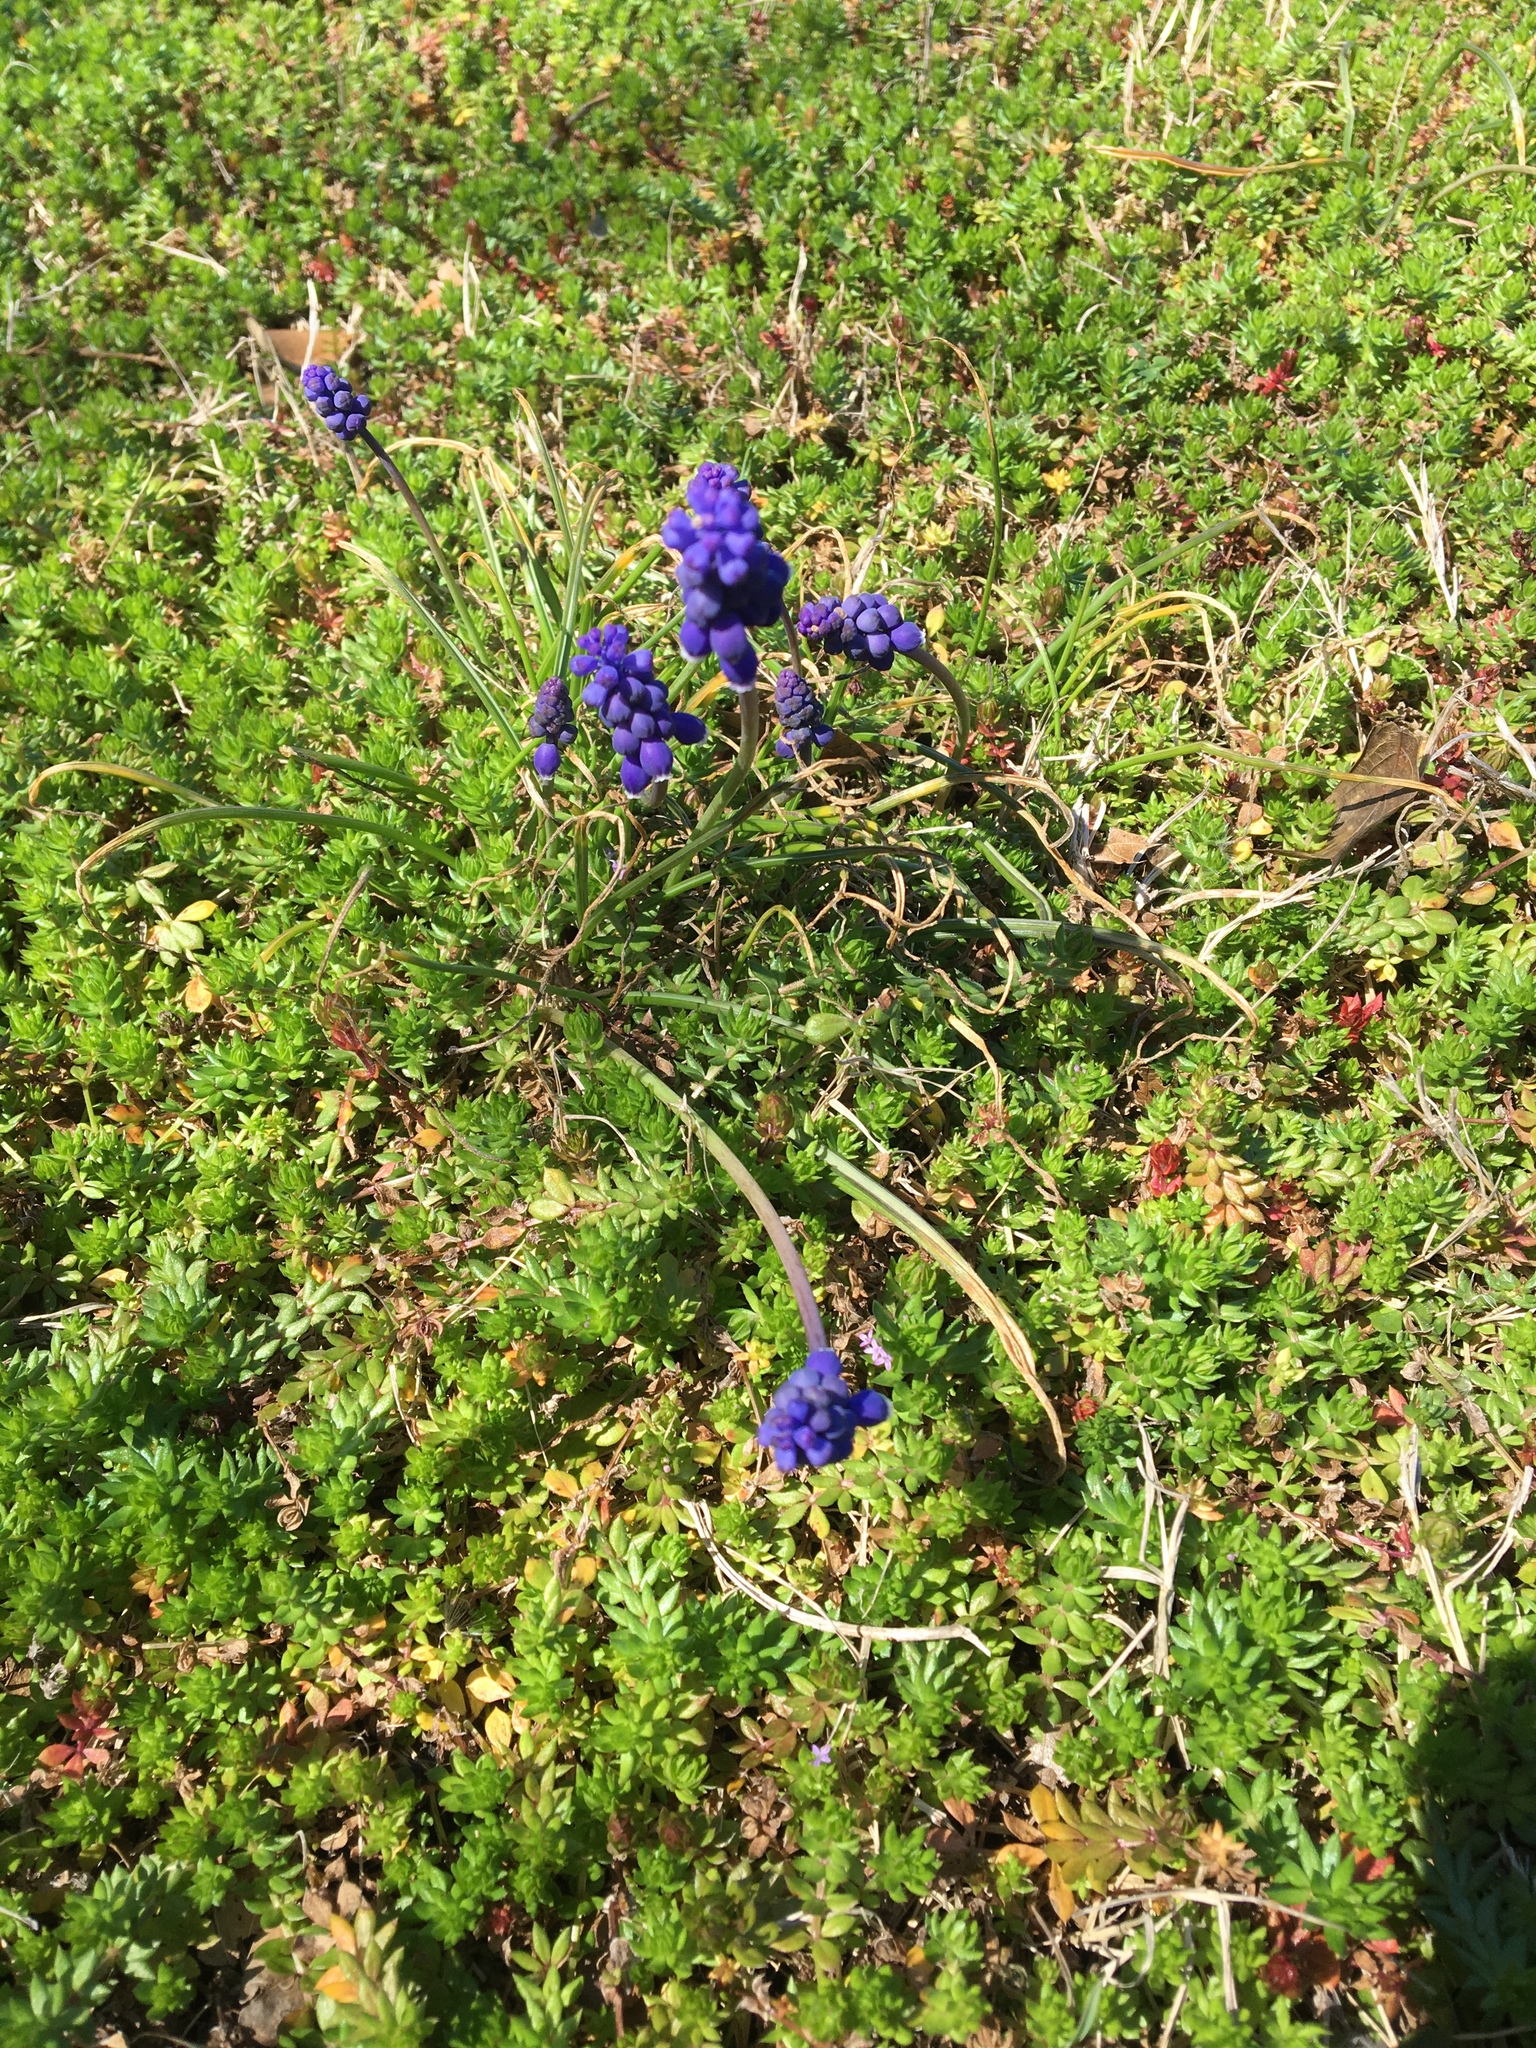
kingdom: Plantae
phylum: Tracheophyta
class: Liliopsida
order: Asparagales
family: Asparagaceae
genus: Muscari
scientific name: Muscari neglectum
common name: Grape-hyacinth
